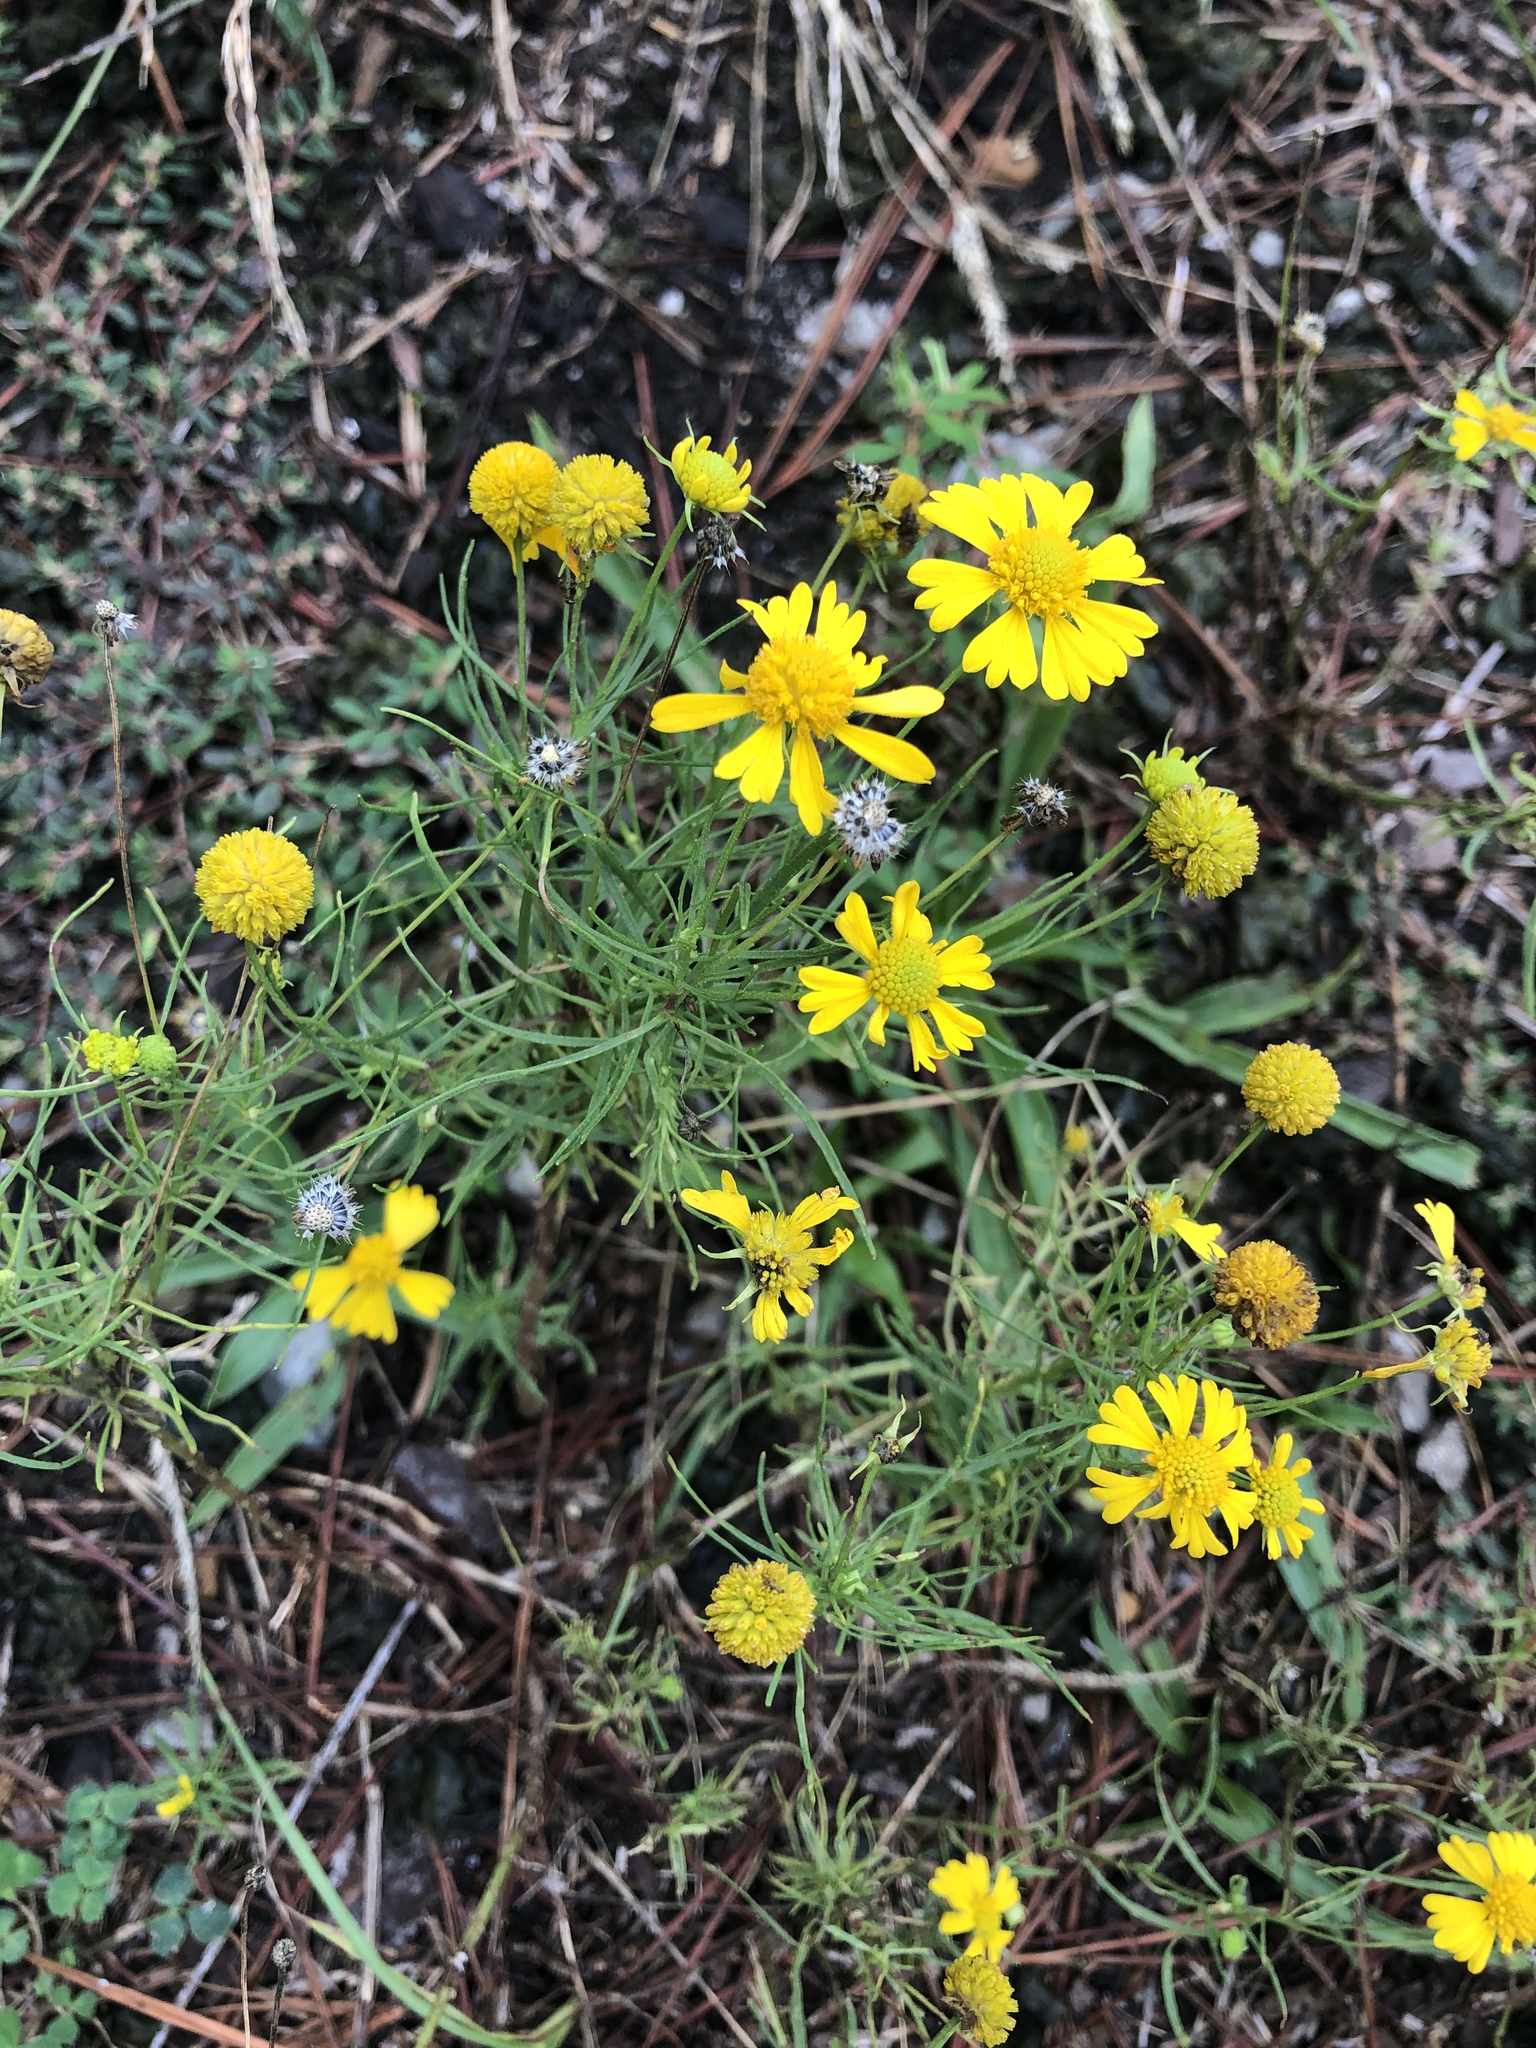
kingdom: Plantae
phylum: Tracheophyta
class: Magnoliopsida
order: Asterales
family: Asteraceae
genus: Helenium
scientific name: Helenium amarum
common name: Bitter sneezeweed
